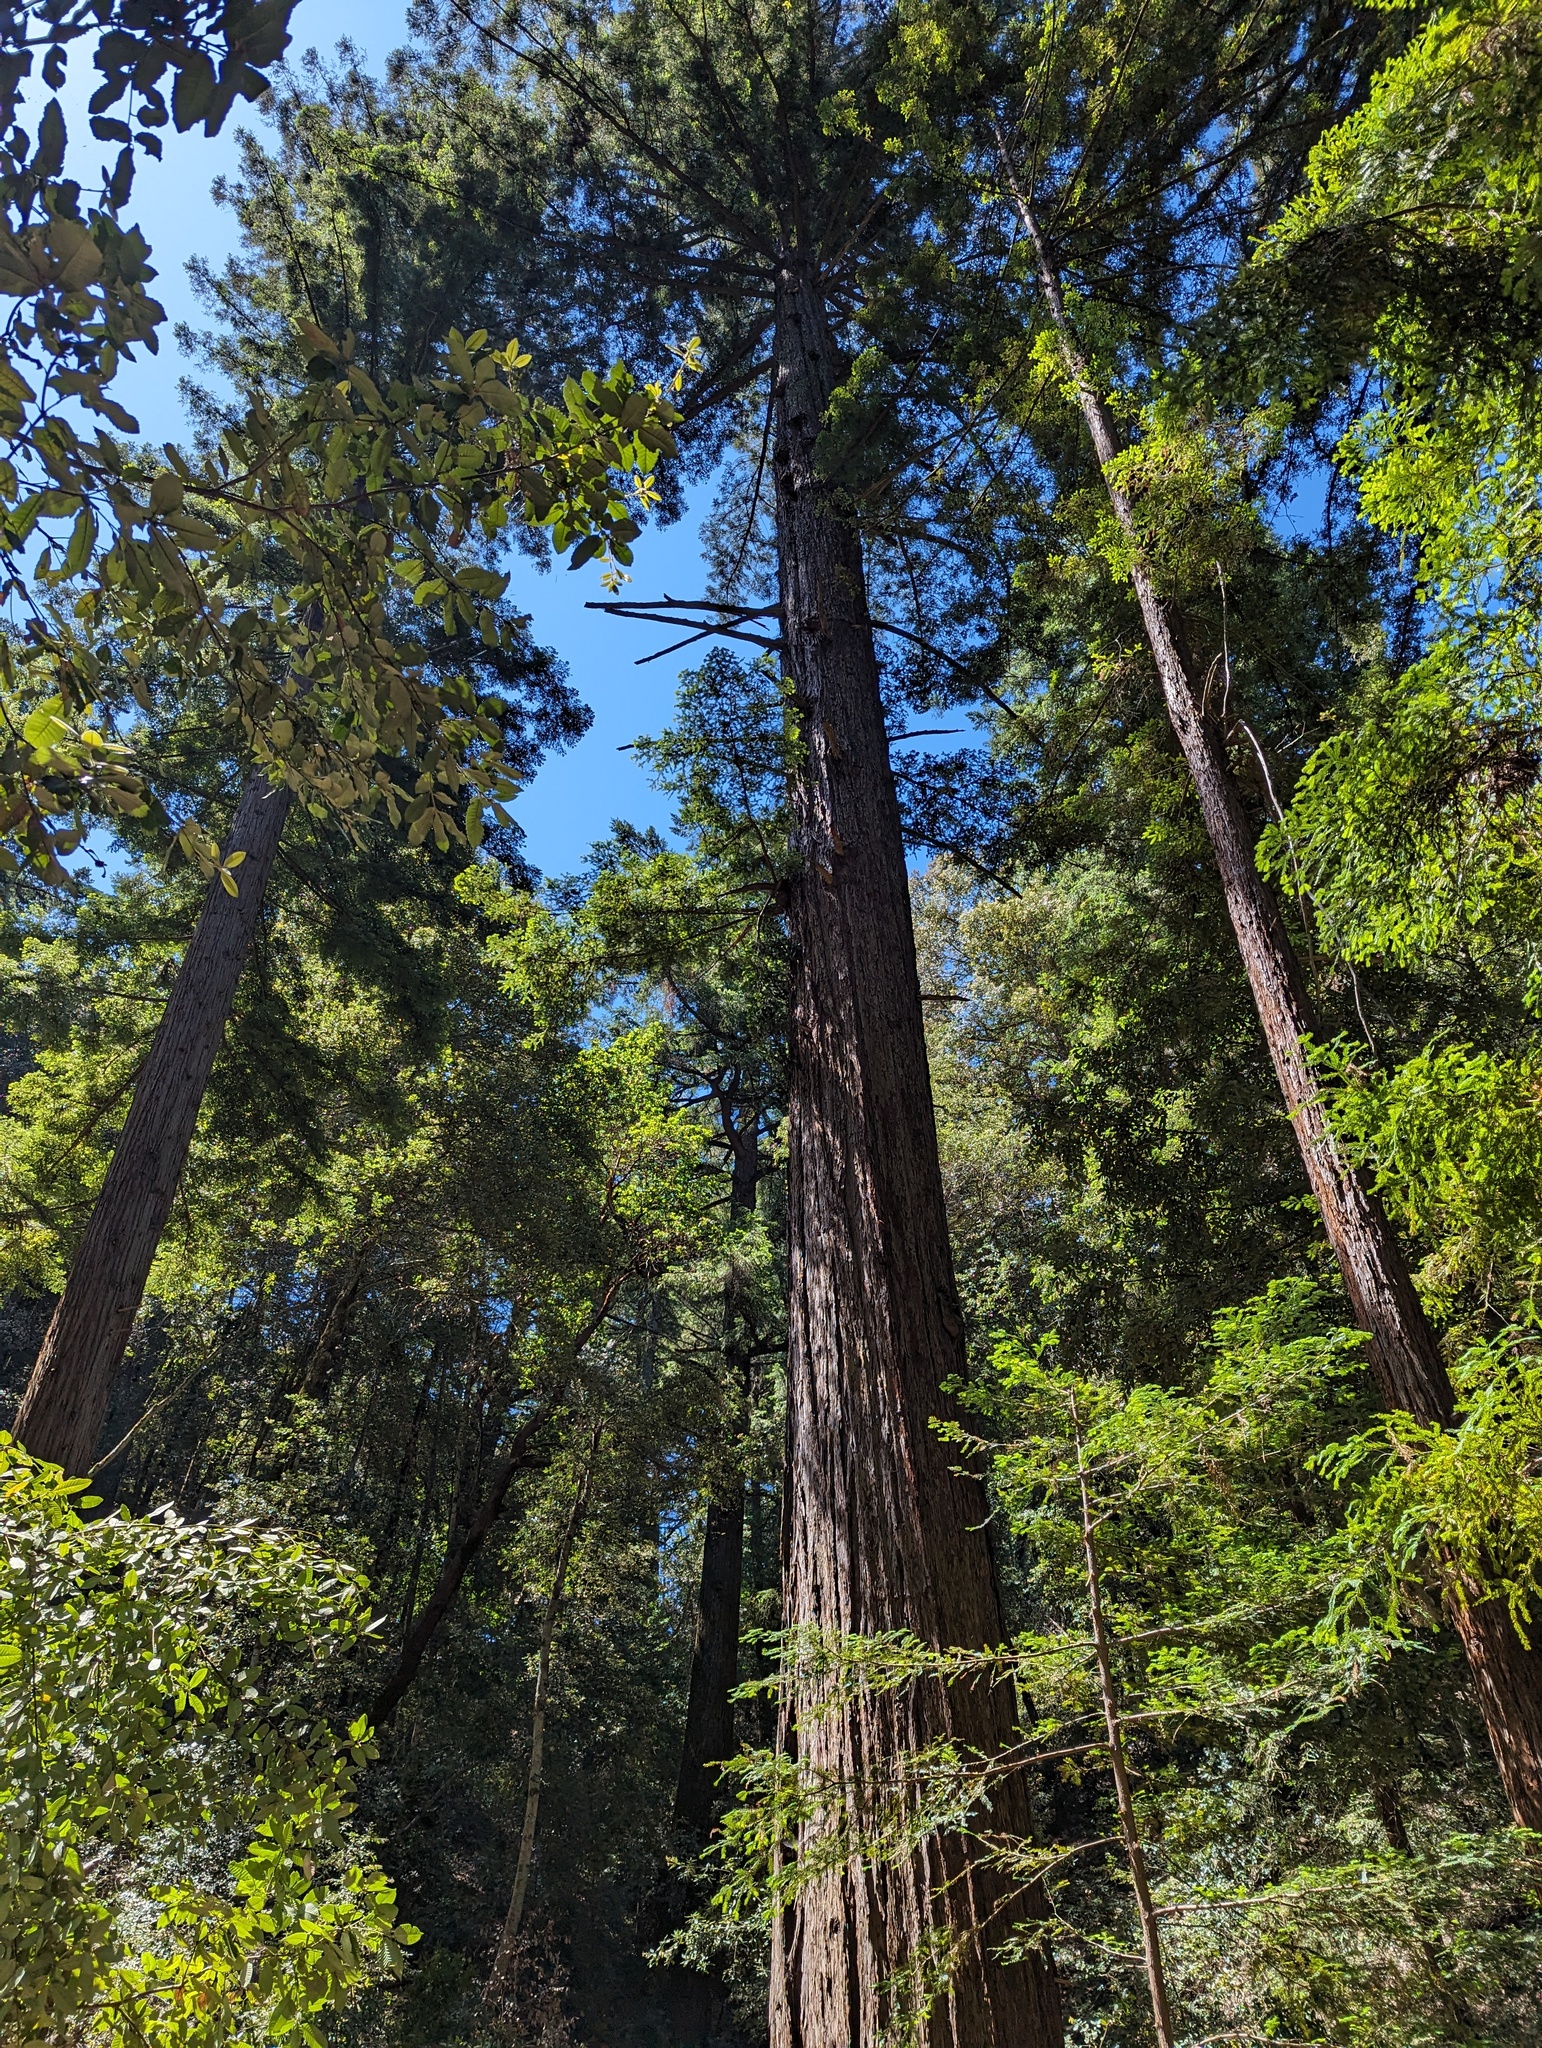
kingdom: Plantae
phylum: Tracheophyta
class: Pinopsida
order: Pinales
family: Cupressaceae
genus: Sequoia
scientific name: Sequoia sempervirens
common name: Coast redwood
